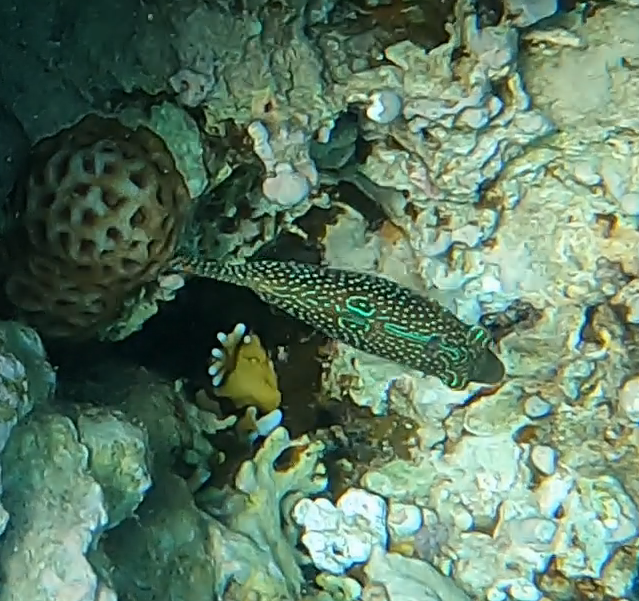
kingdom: Animalia
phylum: Chordata
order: Tetraodontiformes
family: Tetraodontidae
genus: Canthigaster
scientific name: Canthigaster margaritata
